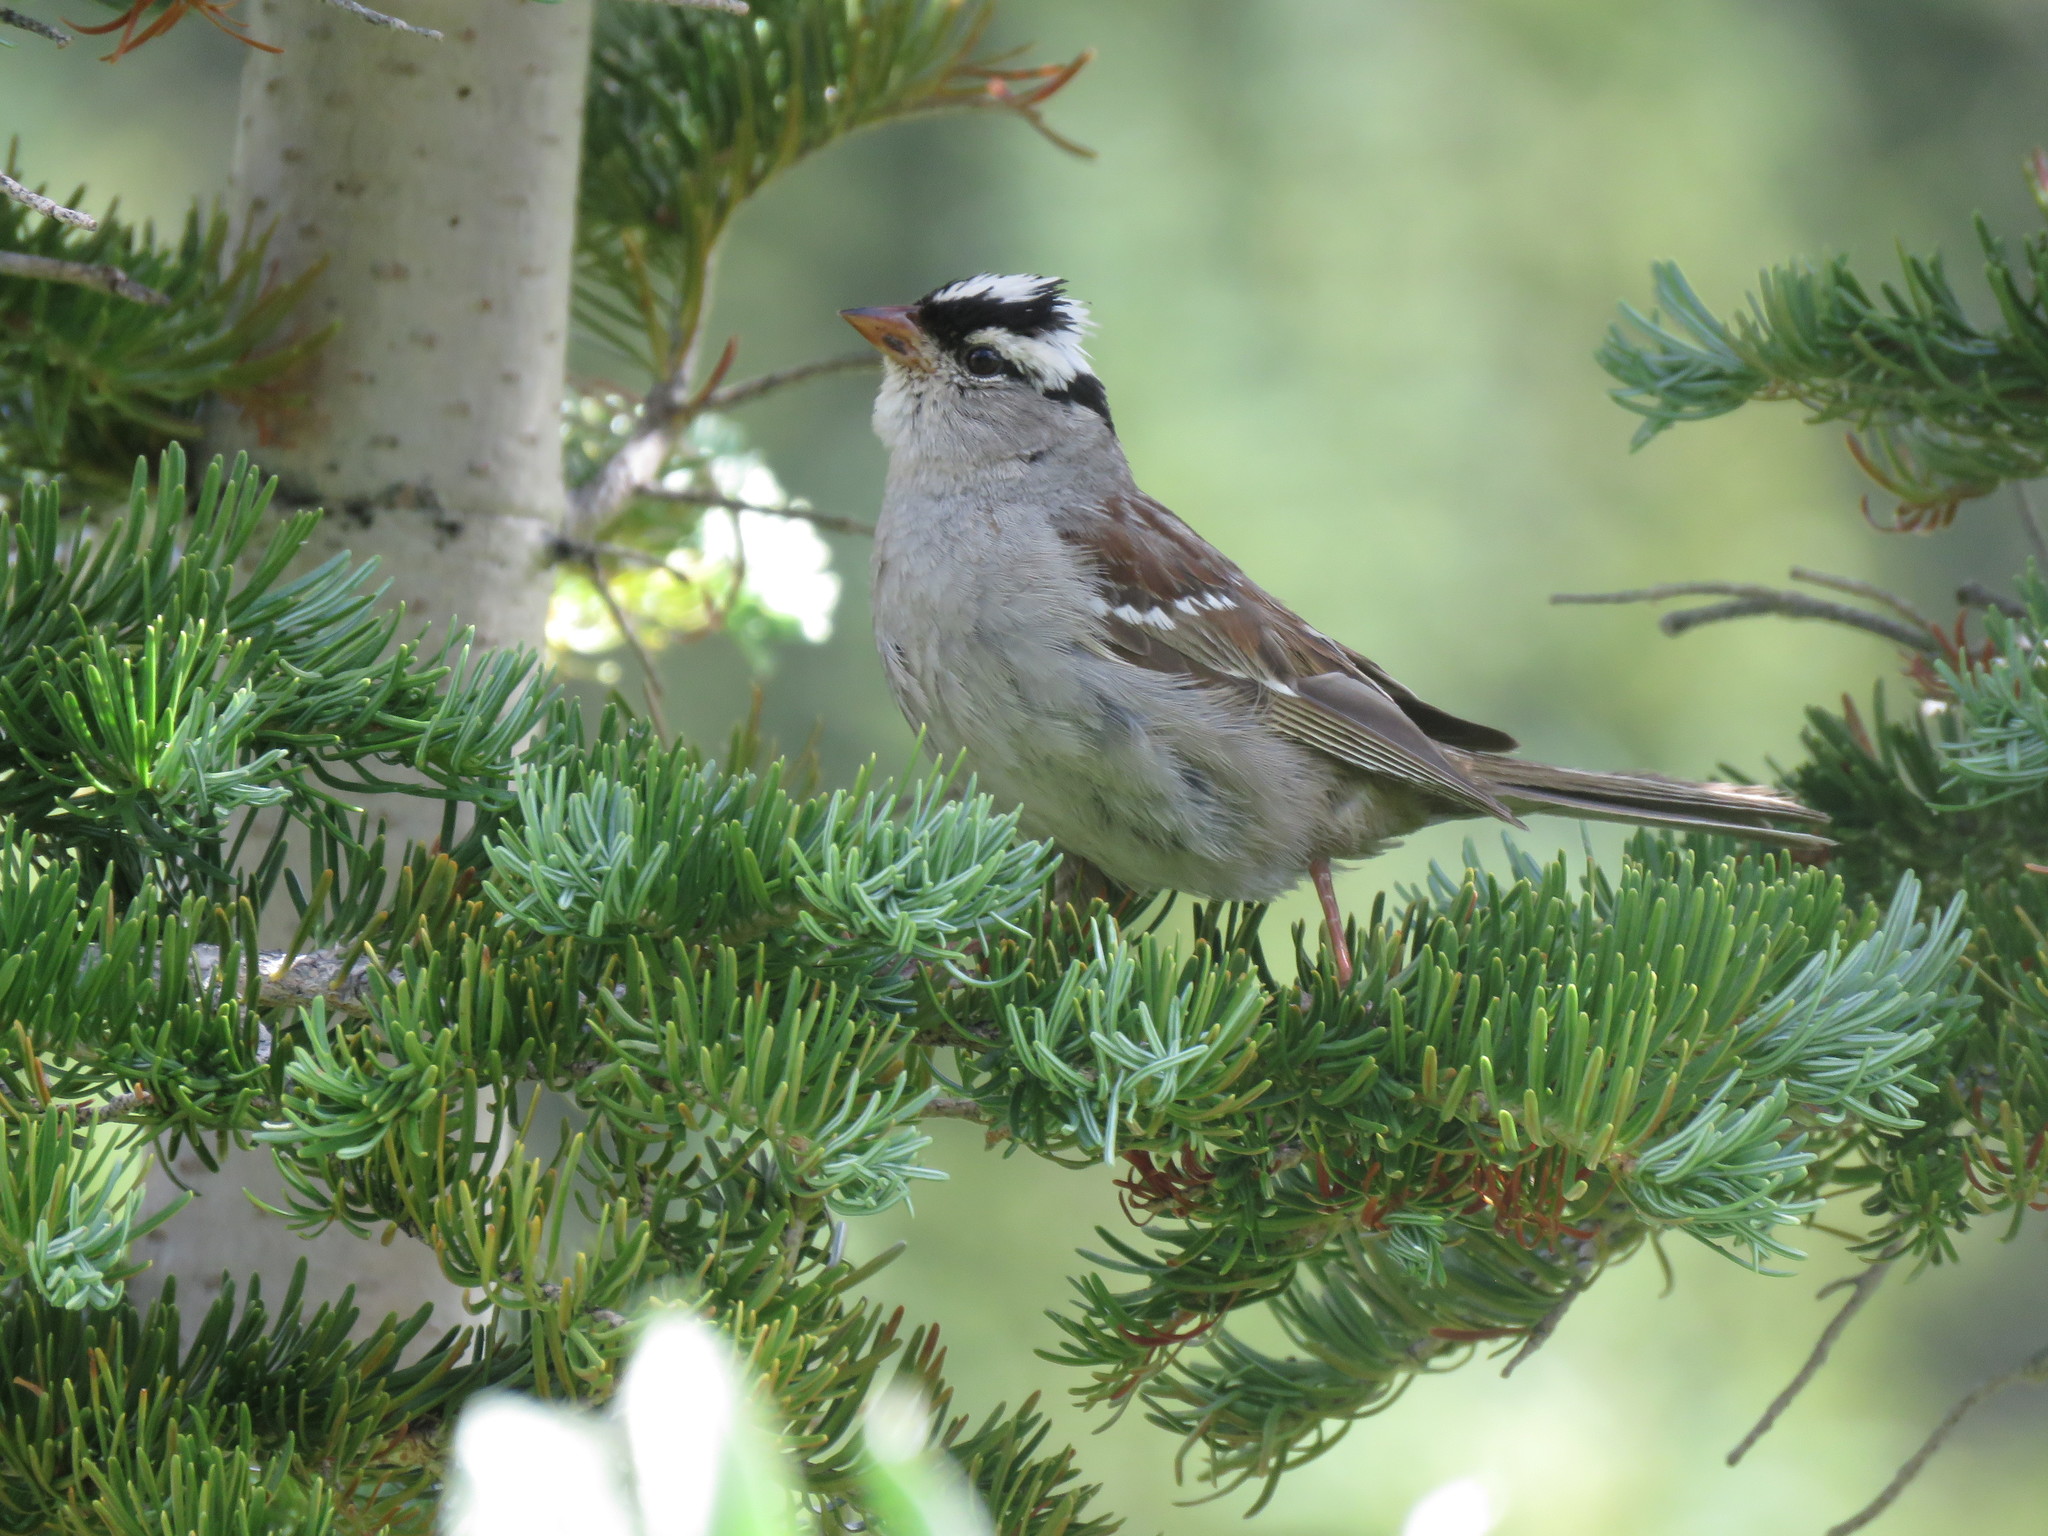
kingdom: Animalia
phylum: Chordata
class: Aves
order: Passeriformes
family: Passerellidae
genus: Zonotrichia
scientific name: Zonotrichia leucophrys
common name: White-crowned sparrow
